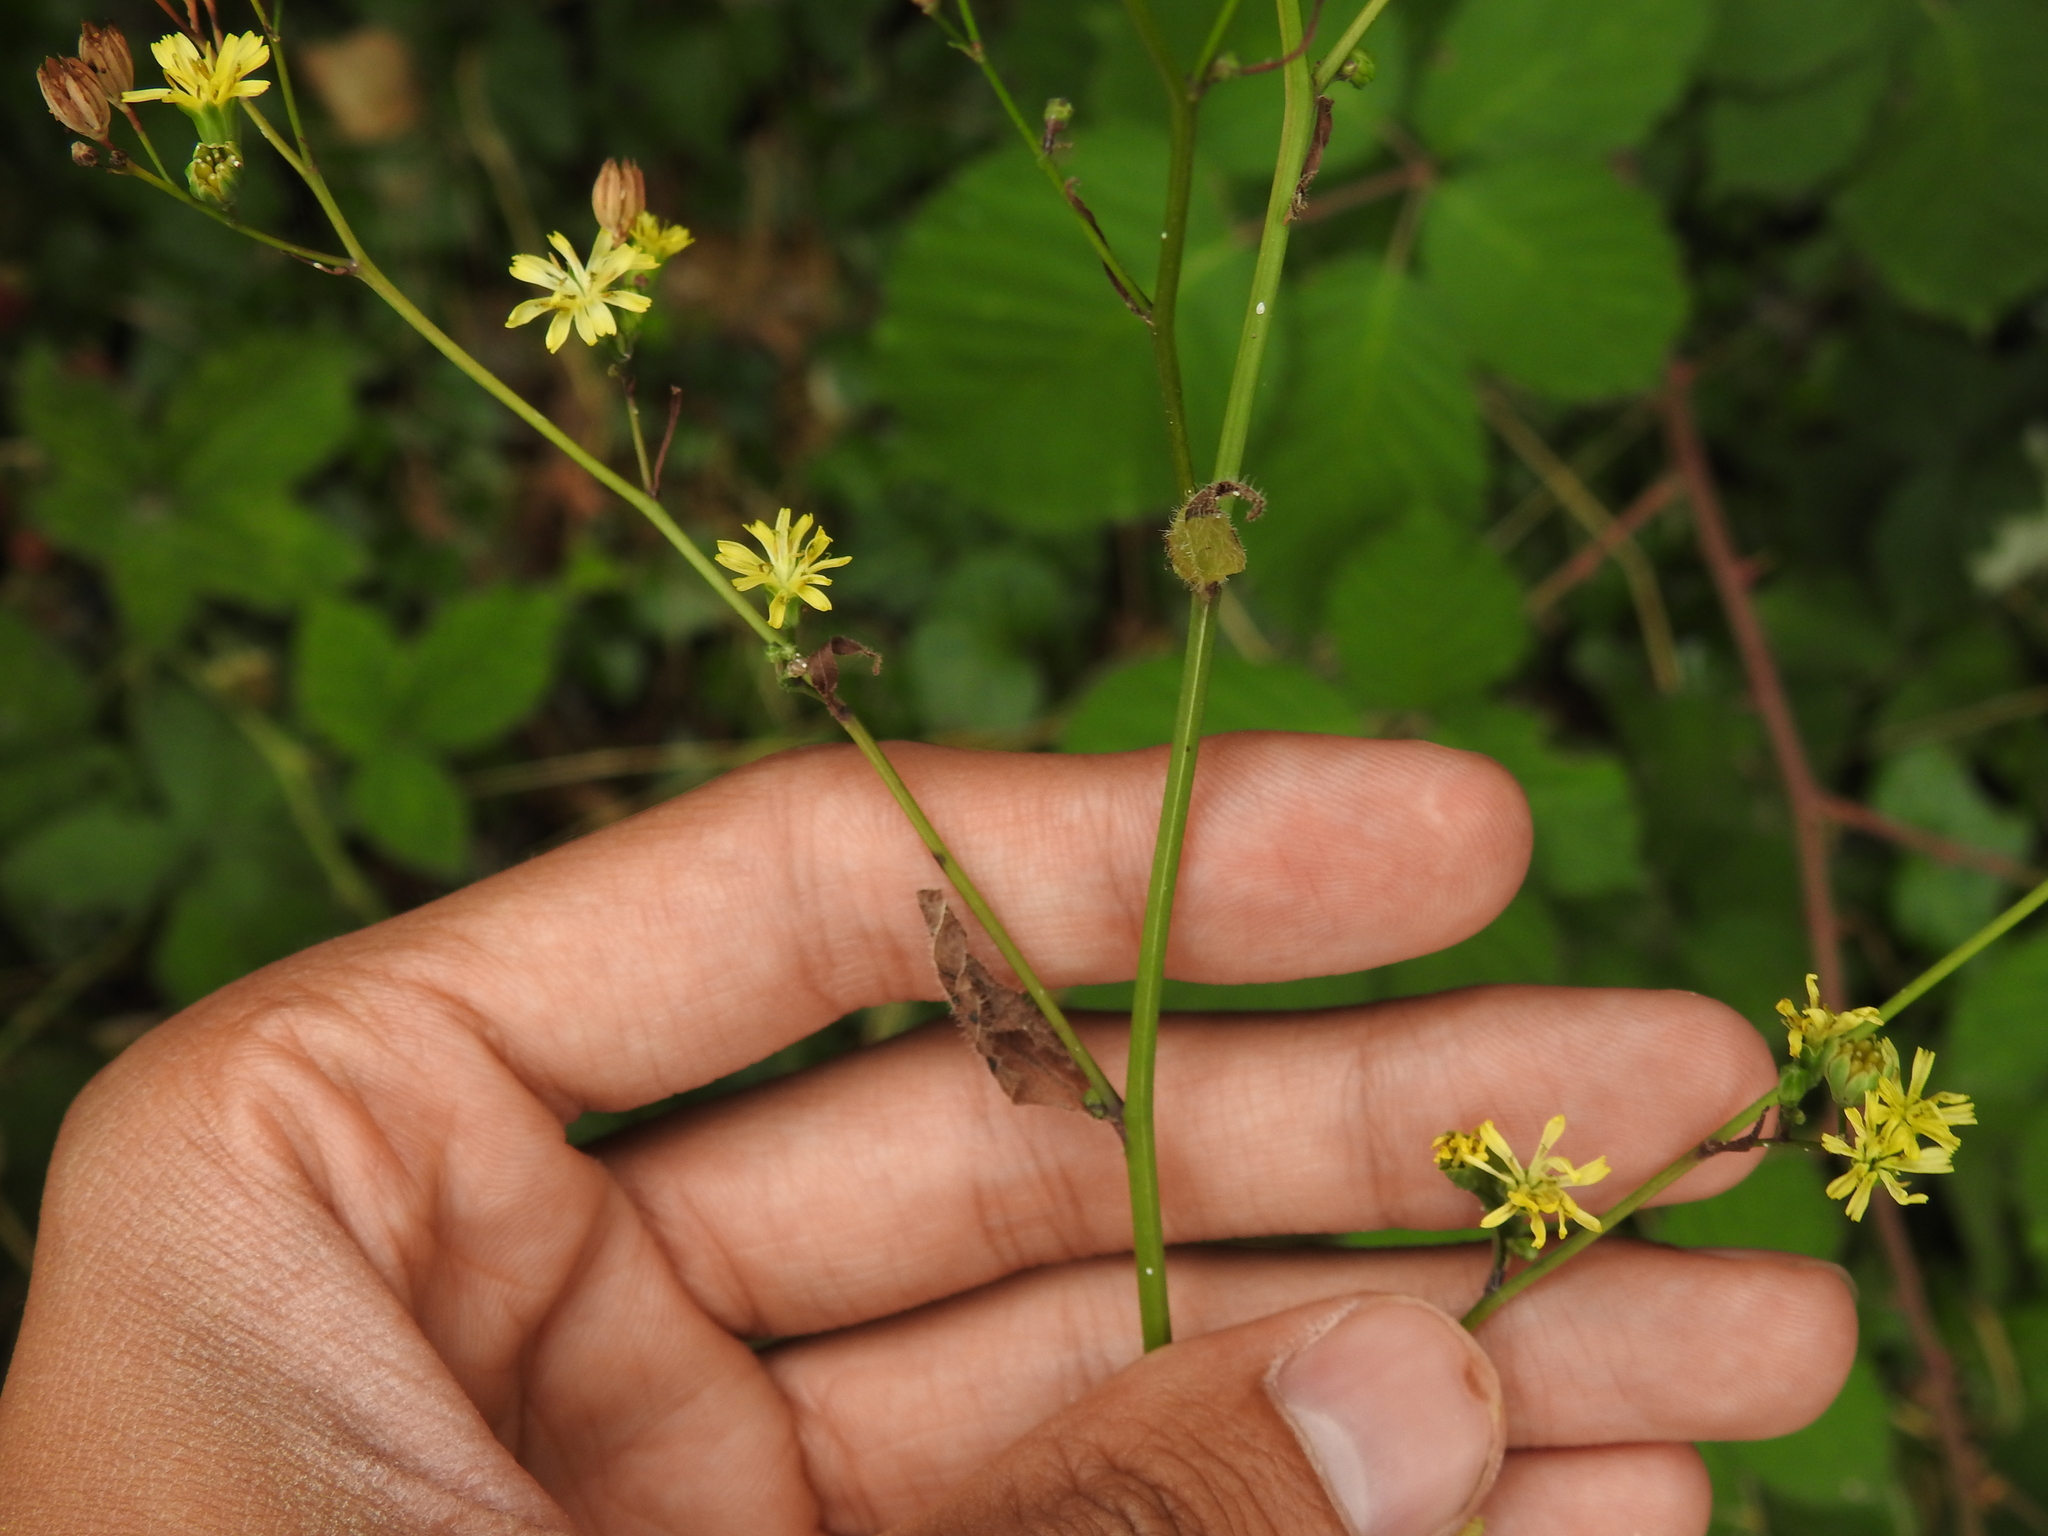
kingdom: Plantae
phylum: Tracheophyta
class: Magnoliopsida
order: Asterales
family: Asteraceae
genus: Lapsana
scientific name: Lapsana communis
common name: Nipplewort
